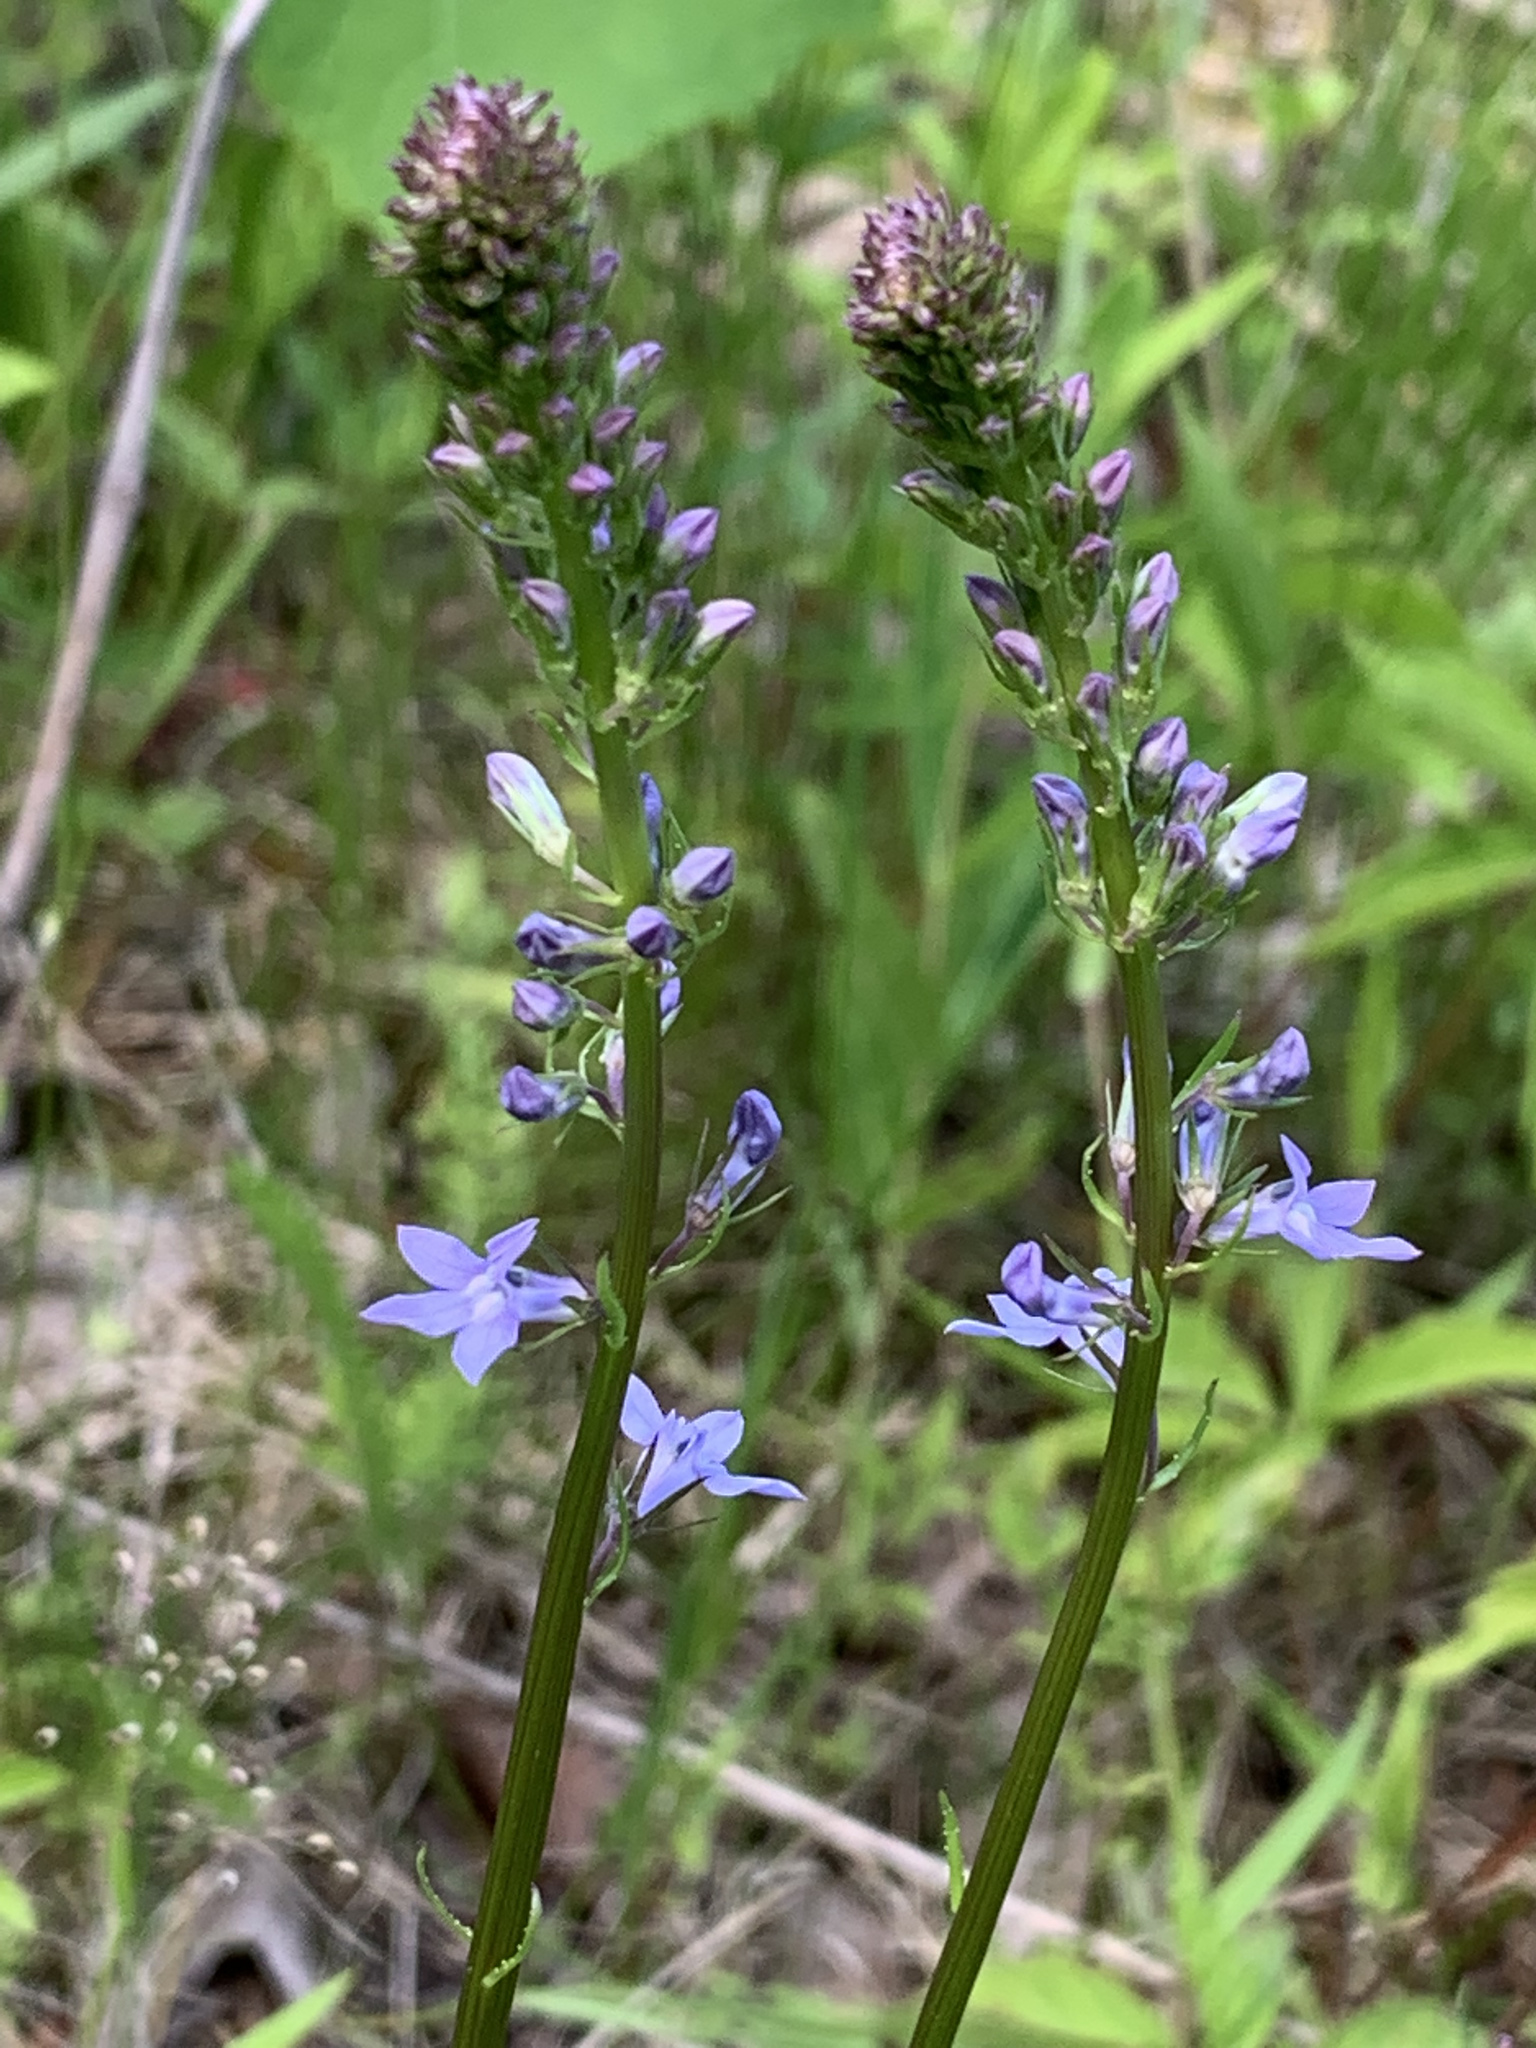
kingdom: Plantae
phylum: Tracheophyta
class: Magnoliopsida
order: Asterales
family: Campanulaceae
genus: Lobelia
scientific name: Lobelia spicata
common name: Pale-spike lobelia
